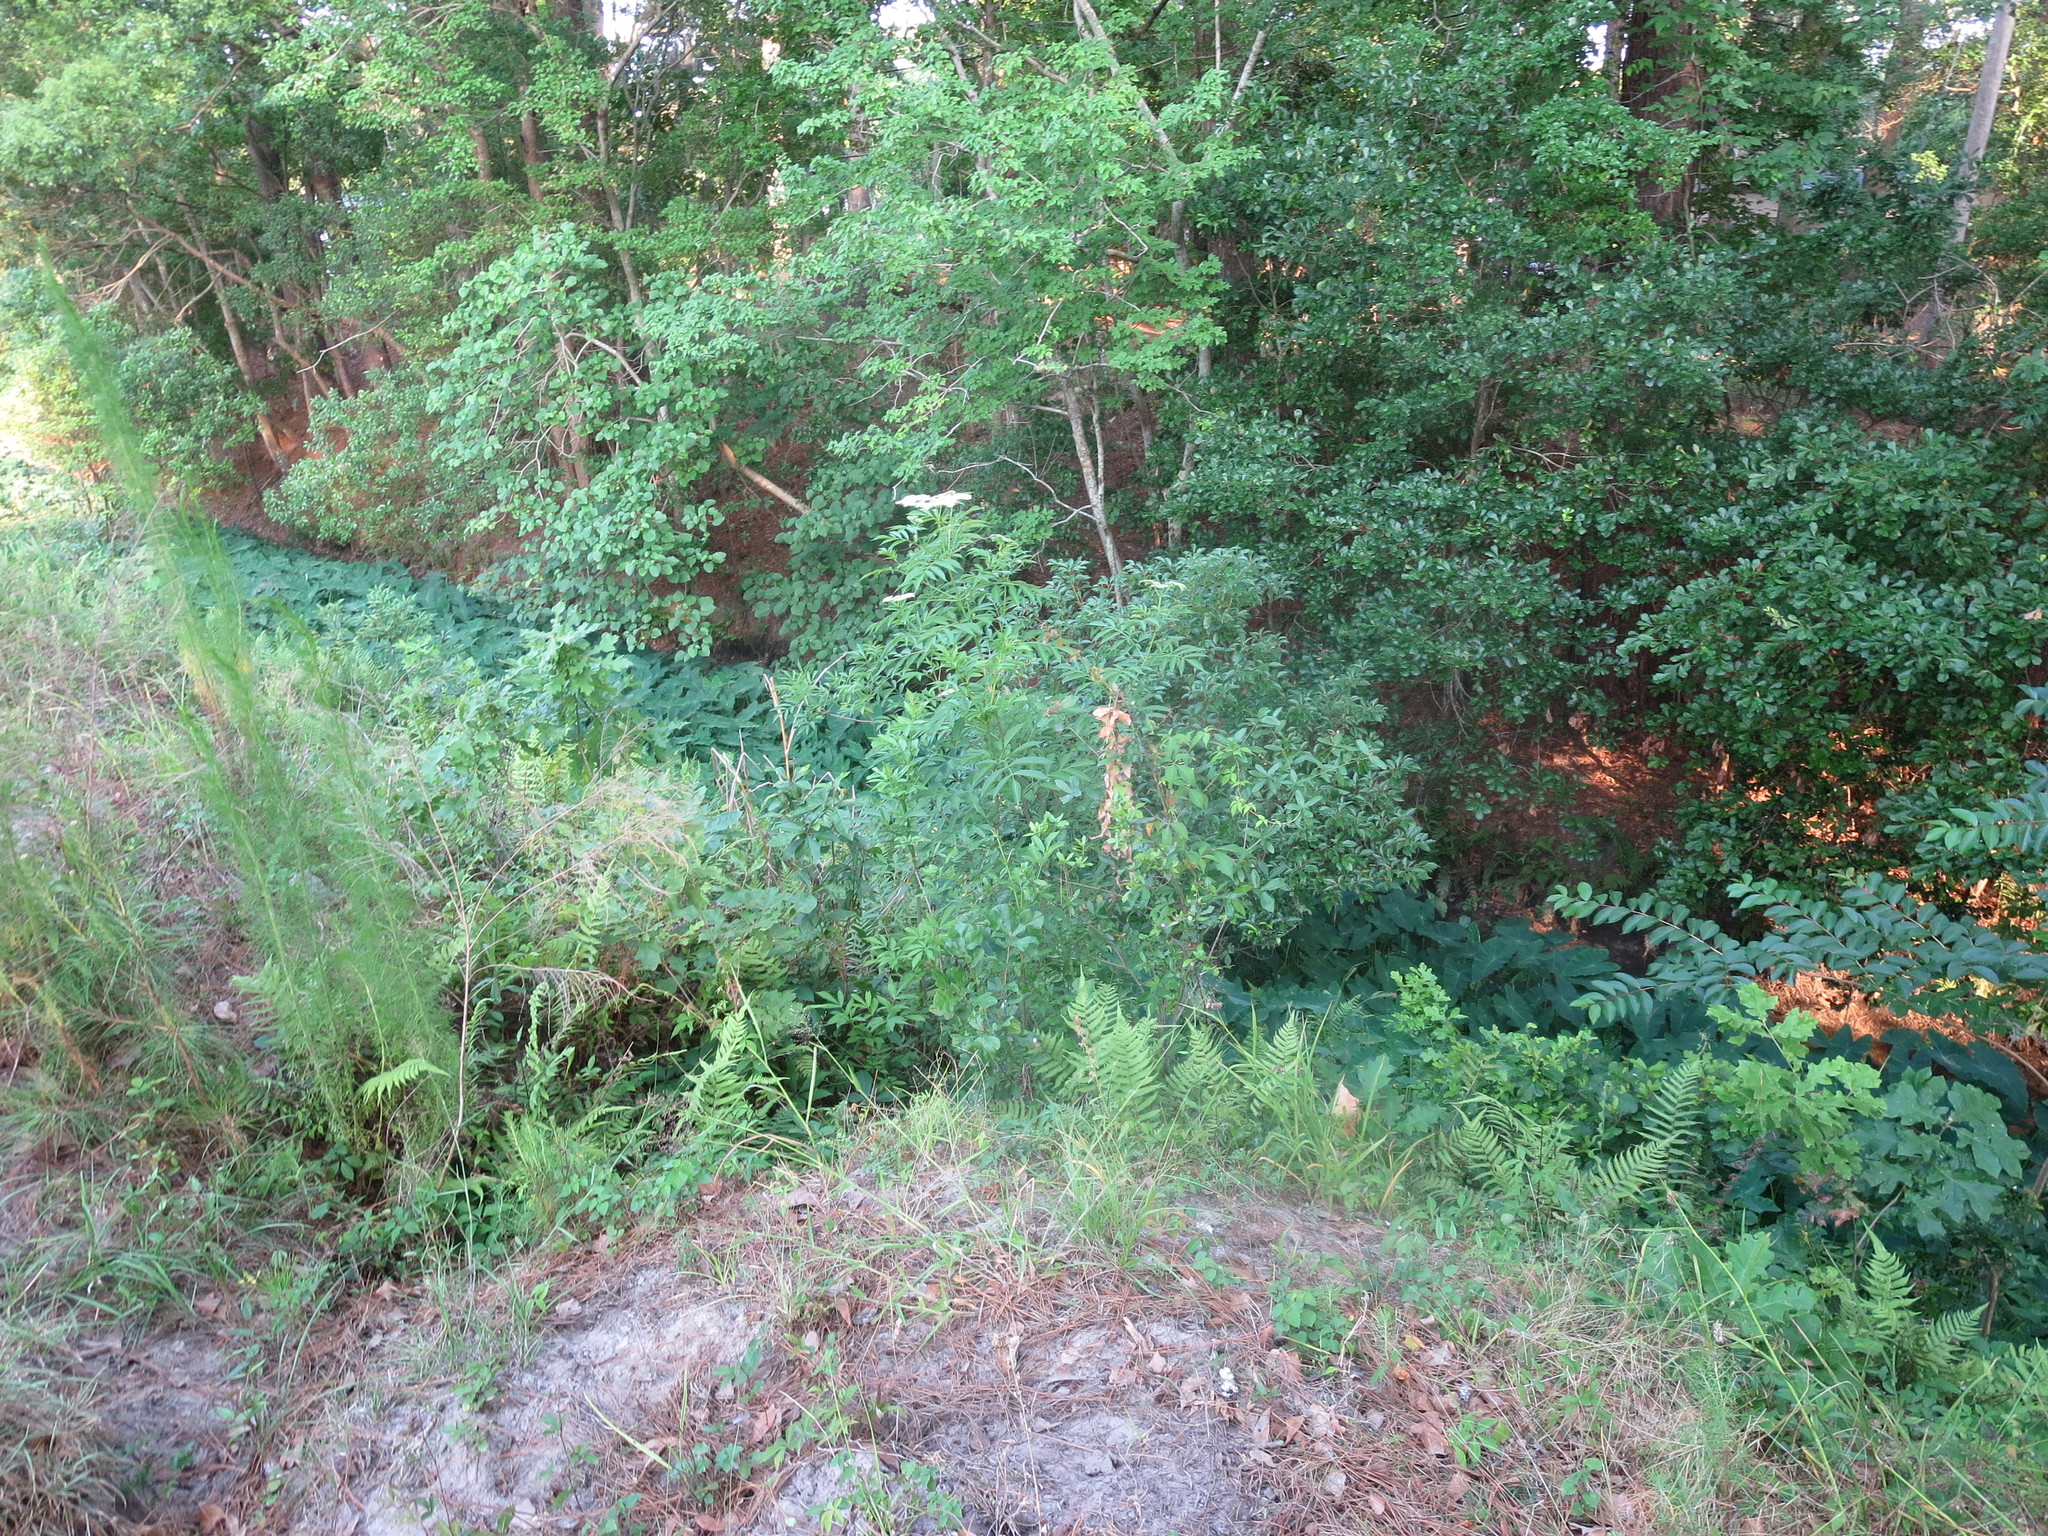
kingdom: Plantae
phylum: Tracheophyta
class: Magnoliopsida
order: Dipsacales
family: Viburnaceae
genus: Sambucus
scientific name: Sambucus canadensis
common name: American elder
